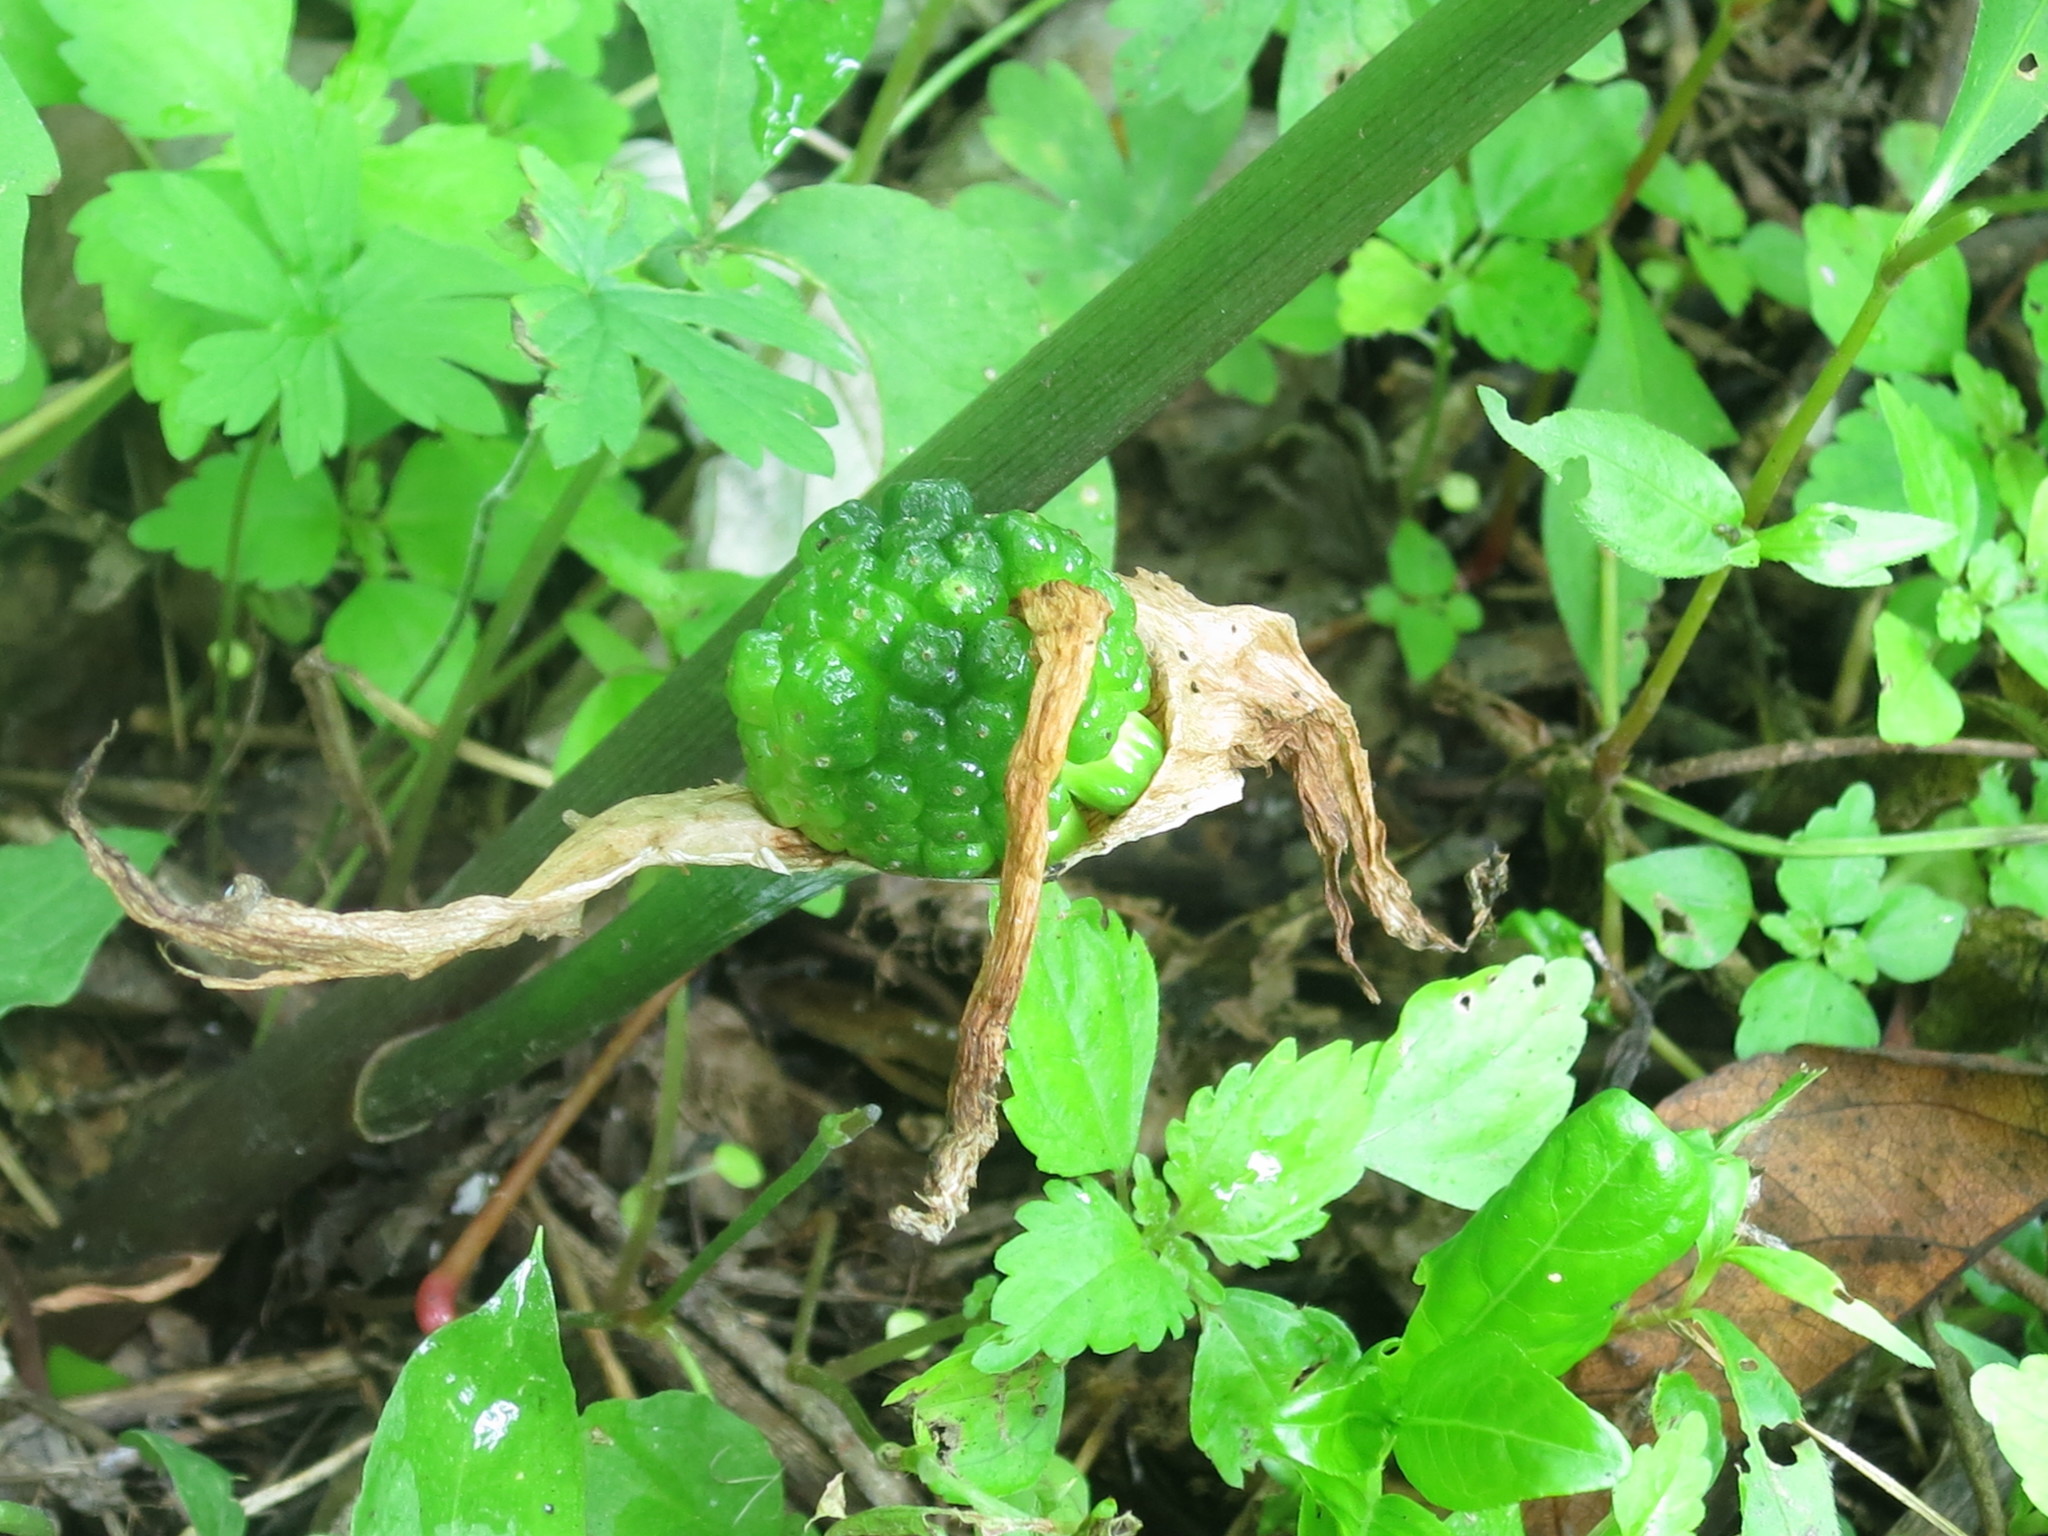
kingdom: Plantae
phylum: Tracheophyta
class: Liliopsida
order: Alismatales
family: Araceae
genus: Arisaema
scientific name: Arisaema amurense
